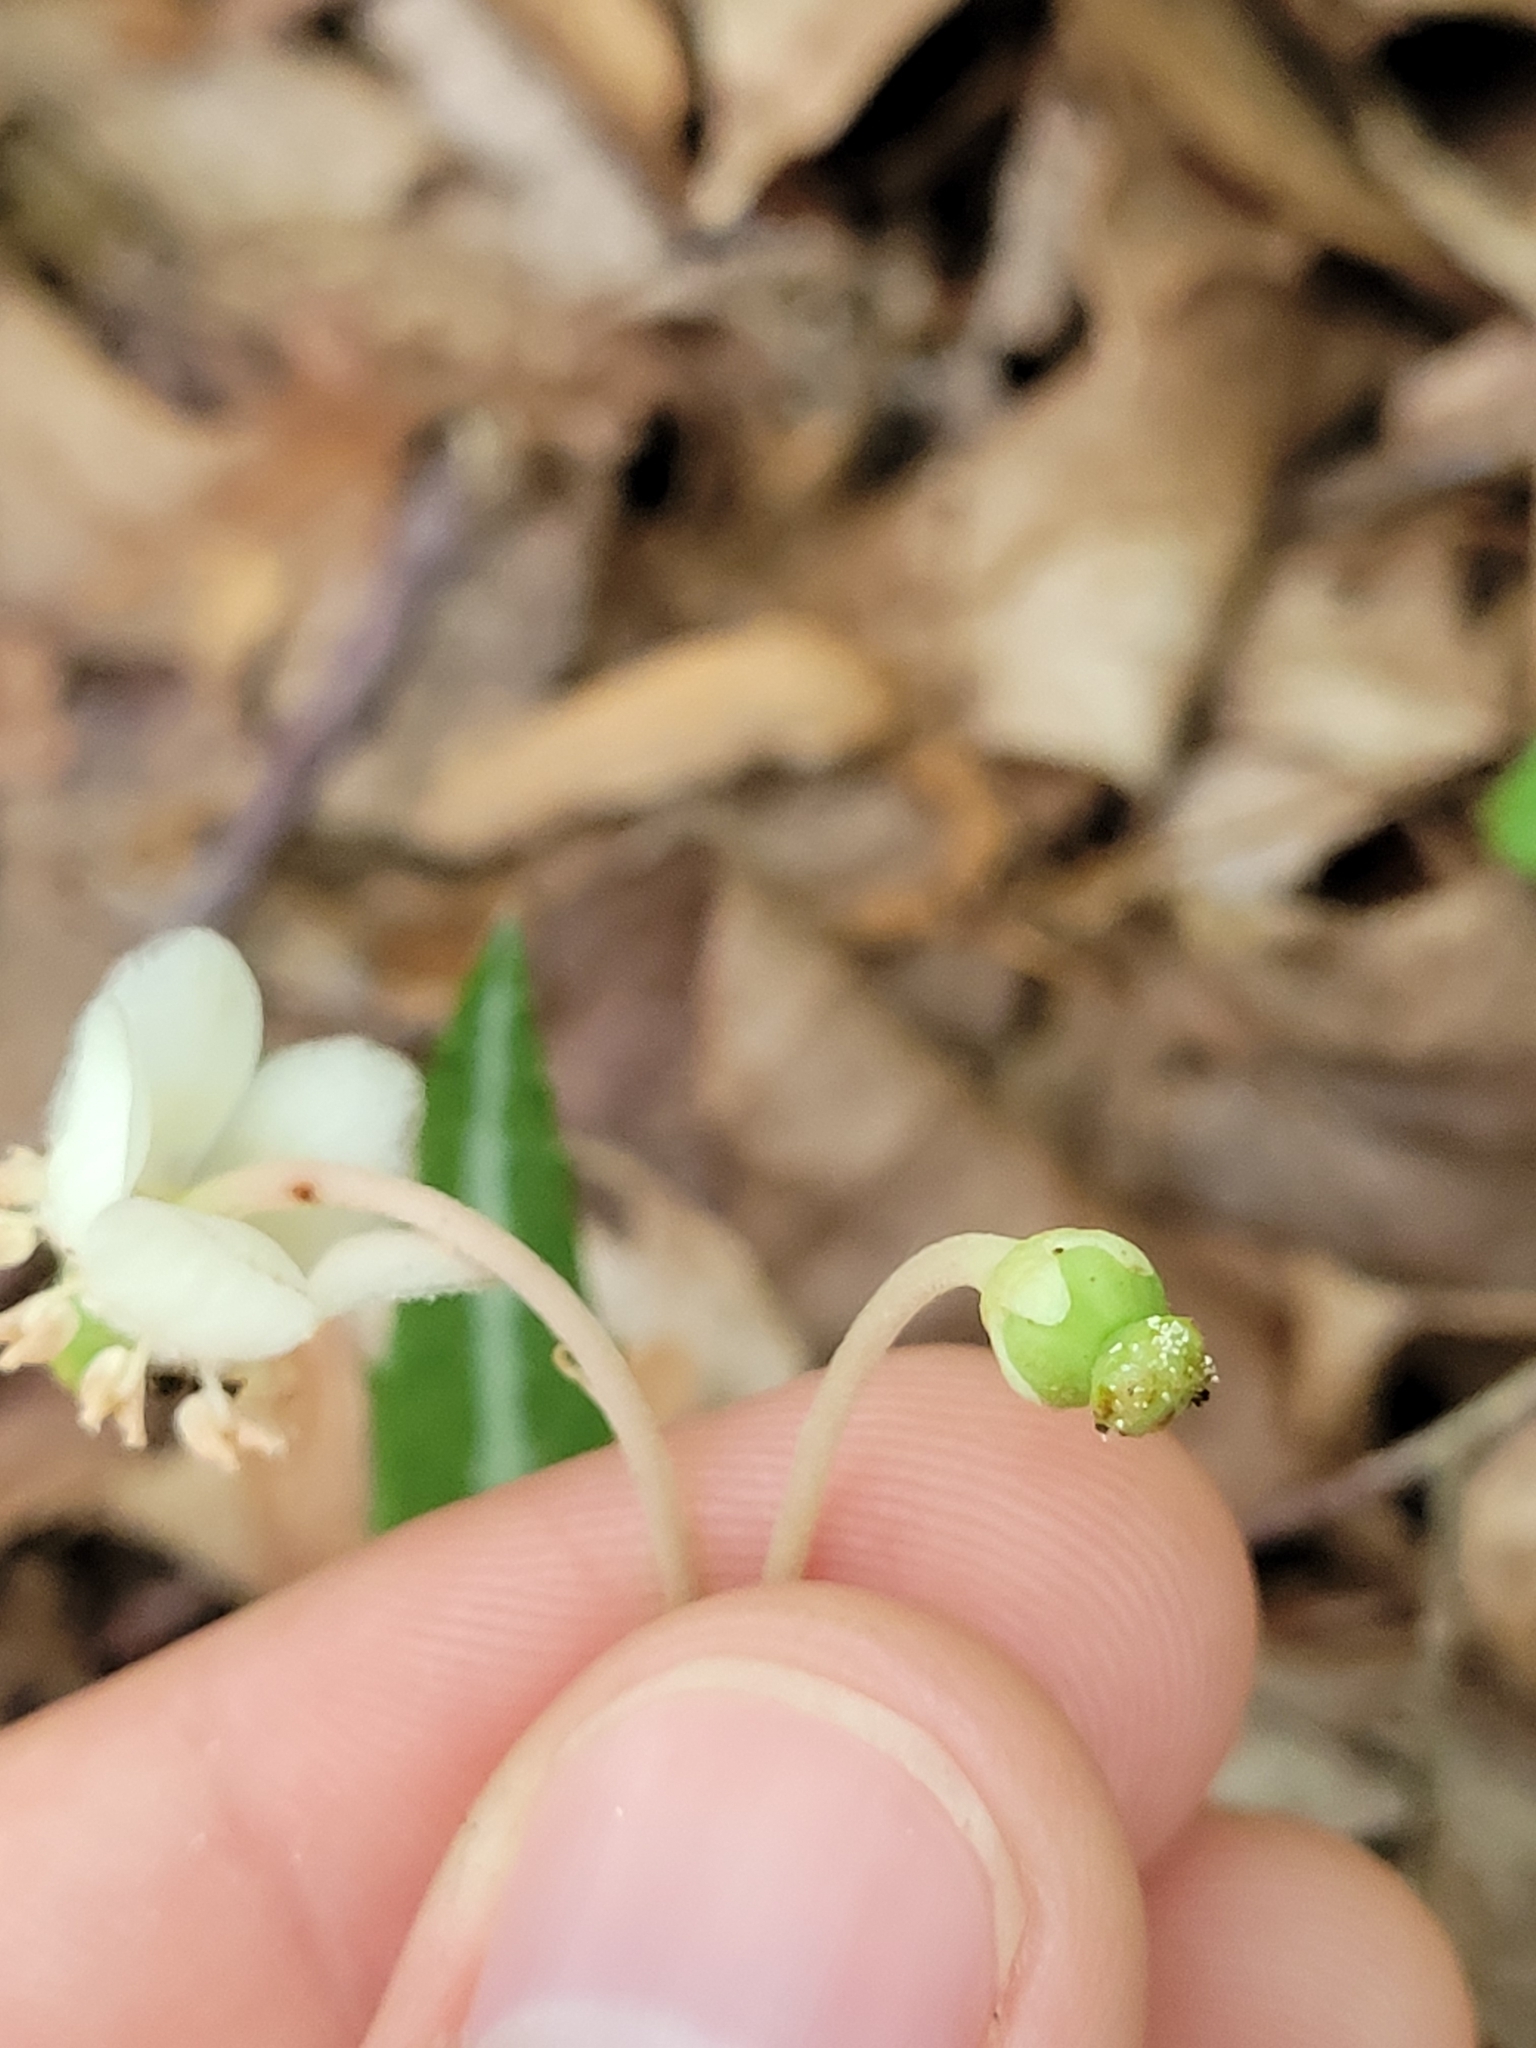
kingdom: Plantae
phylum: Tracheophyta
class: Magnoliopsida
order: Ericales
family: Ericaceae
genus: Chimaphila
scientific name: Chimaphila maculata
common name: Spotted pipsissewa
